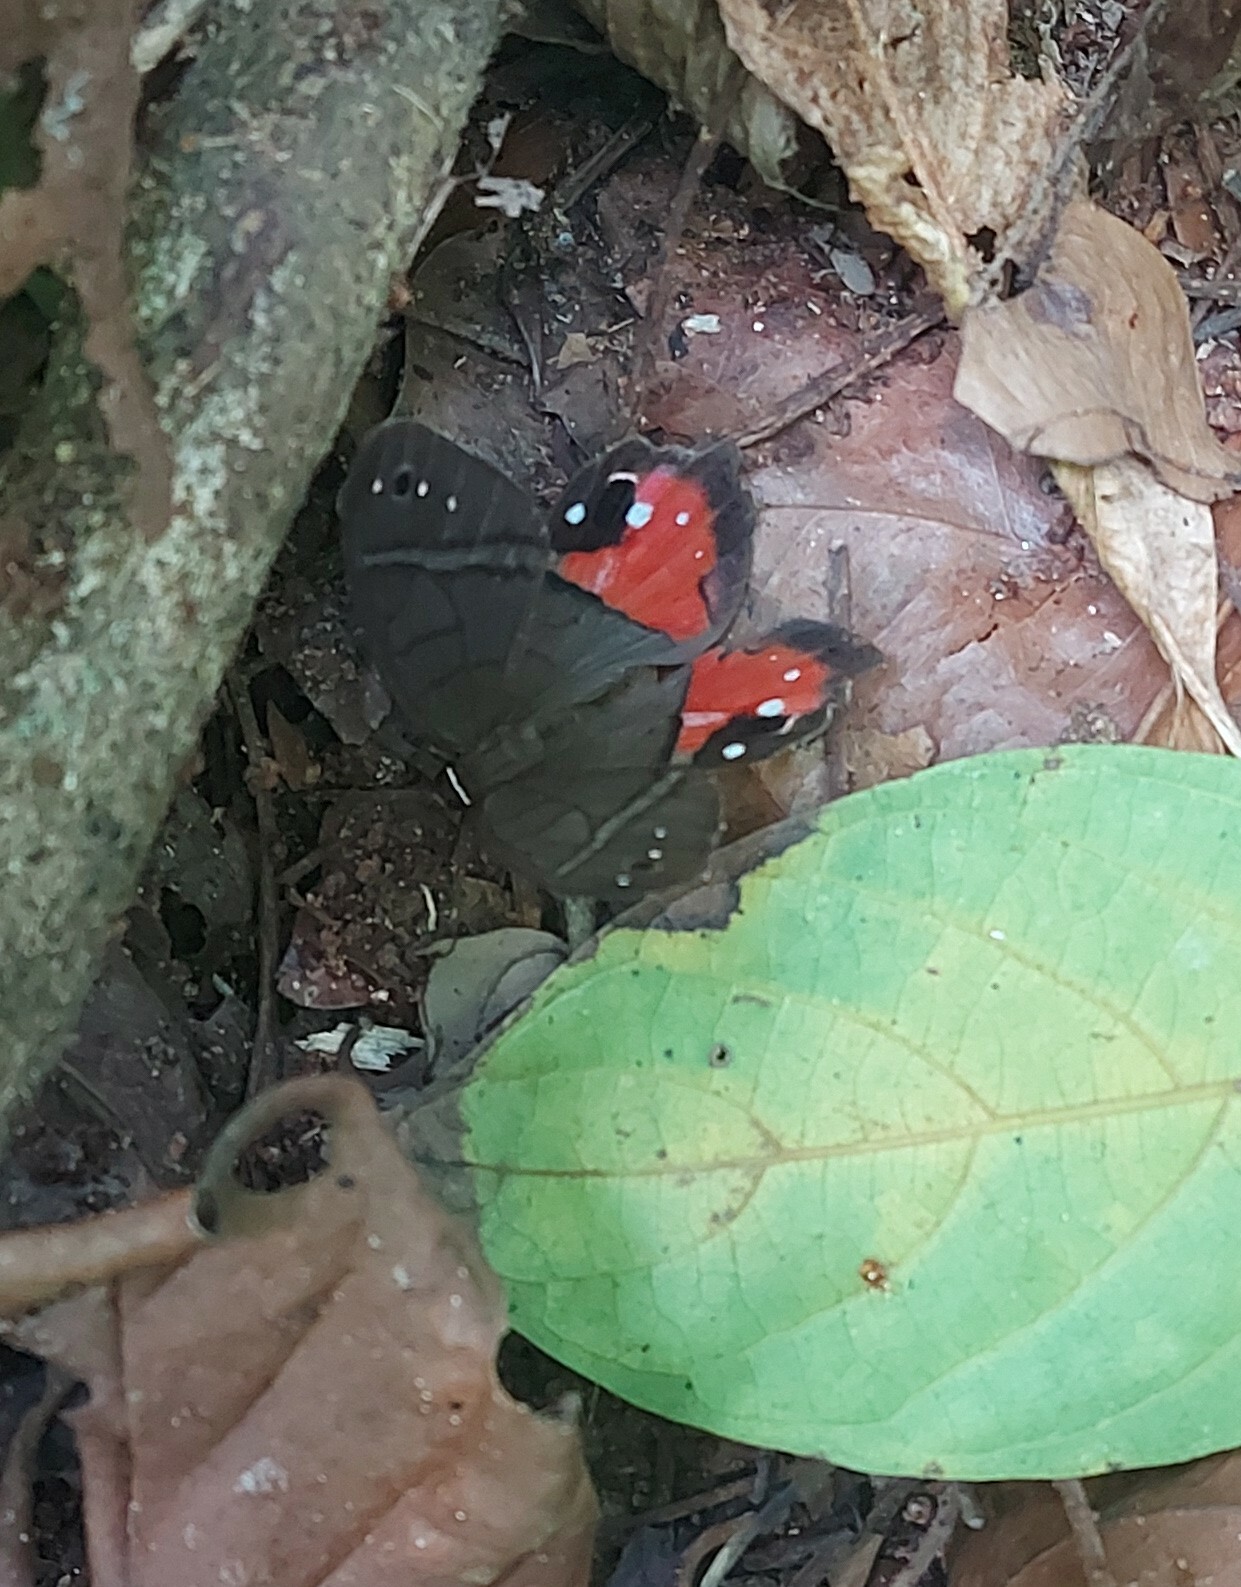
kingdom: Animalia
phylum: Arthropoda
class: Insecta
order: Lepidoptera
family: Nymphalidae
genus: Pierella
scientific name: Pierella helvina
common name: Red-washed satyr
